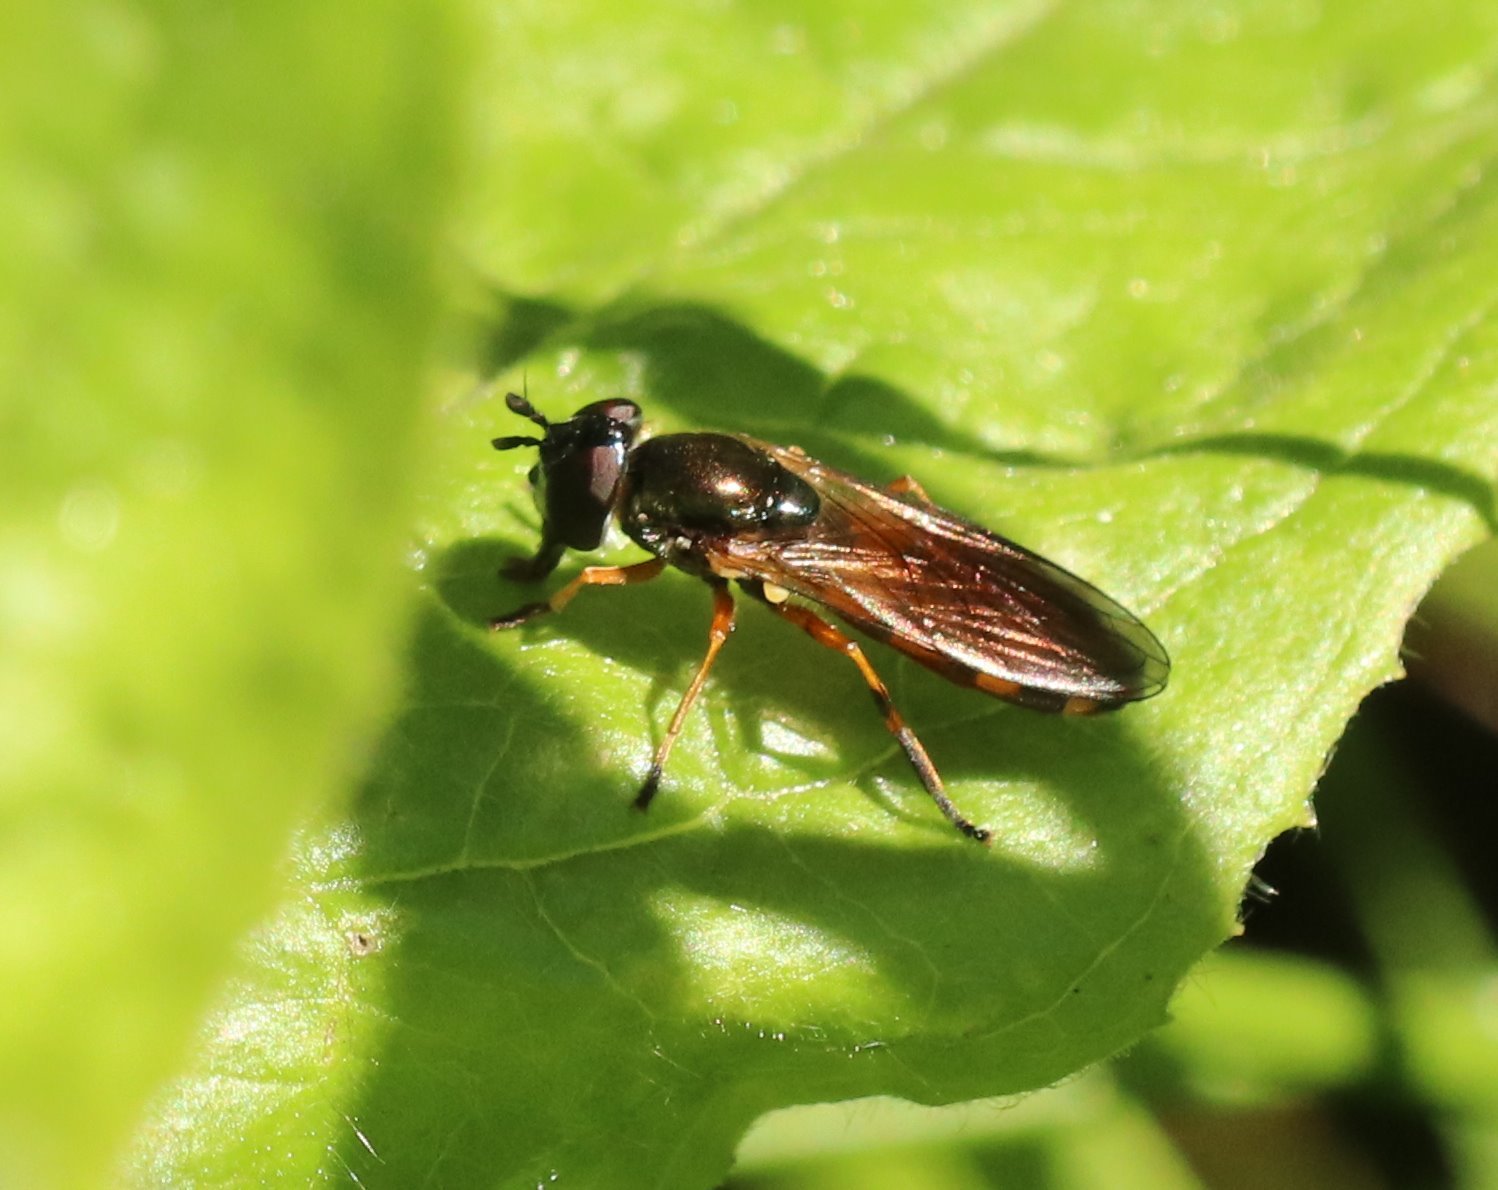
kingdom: Animalia
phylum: Arthropoda
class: Insecta
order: Diptera
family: Syrphidae
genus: Pyrophaena
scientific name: Pyrophaena granditarsa
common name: Hornhand sedgesitter
